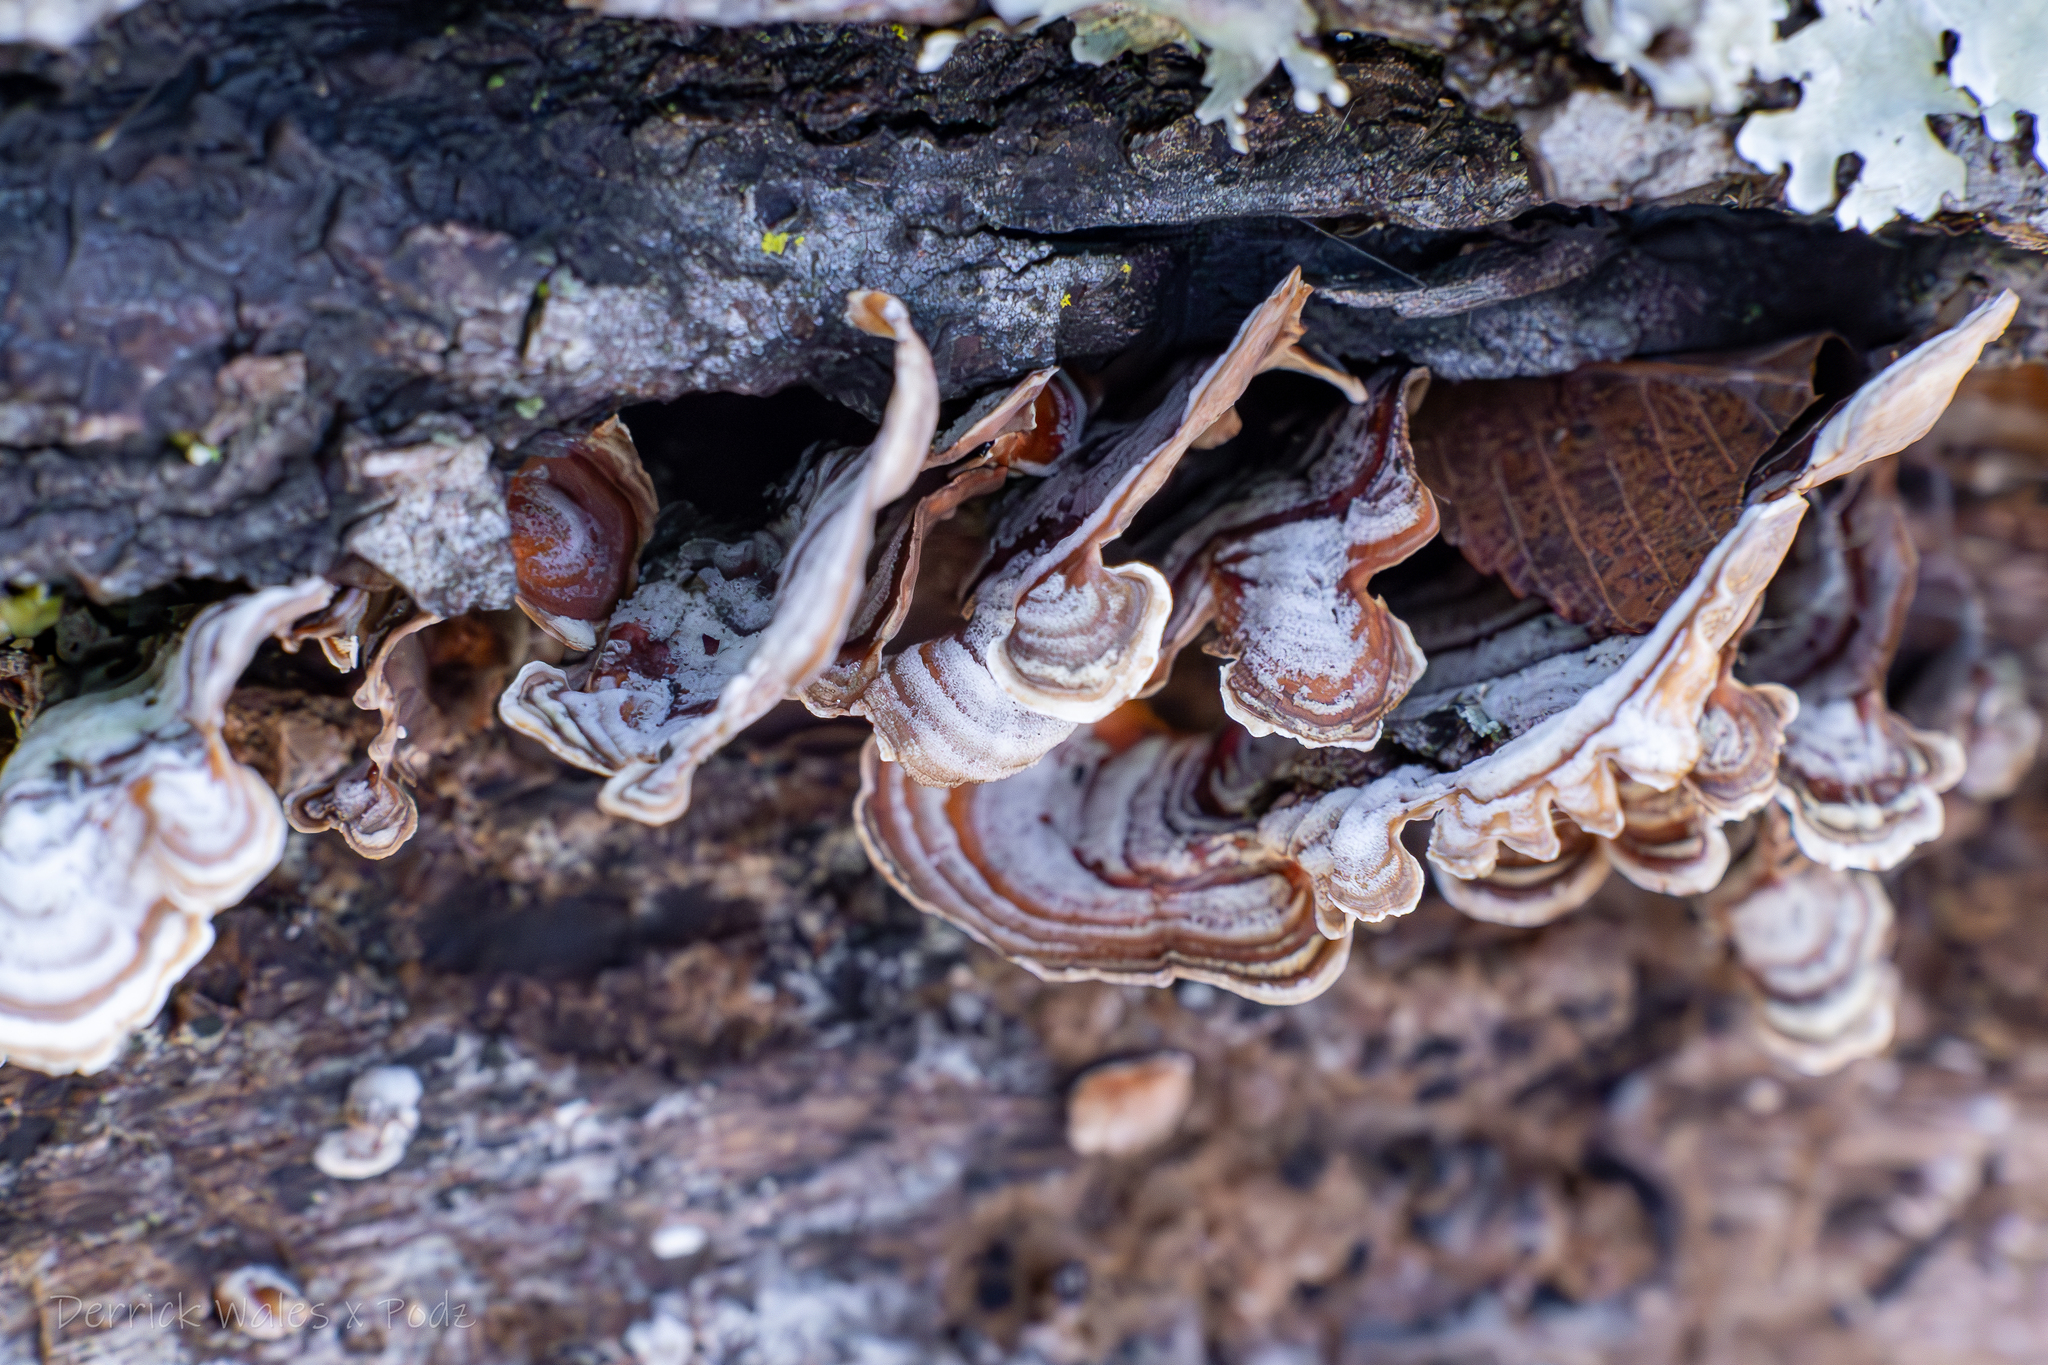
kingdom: Fungi
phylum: Basidiomycota
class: Agaricomycetes
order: Russulales
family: Stereaceae
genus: Stereum
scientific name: Stereum lobatum
